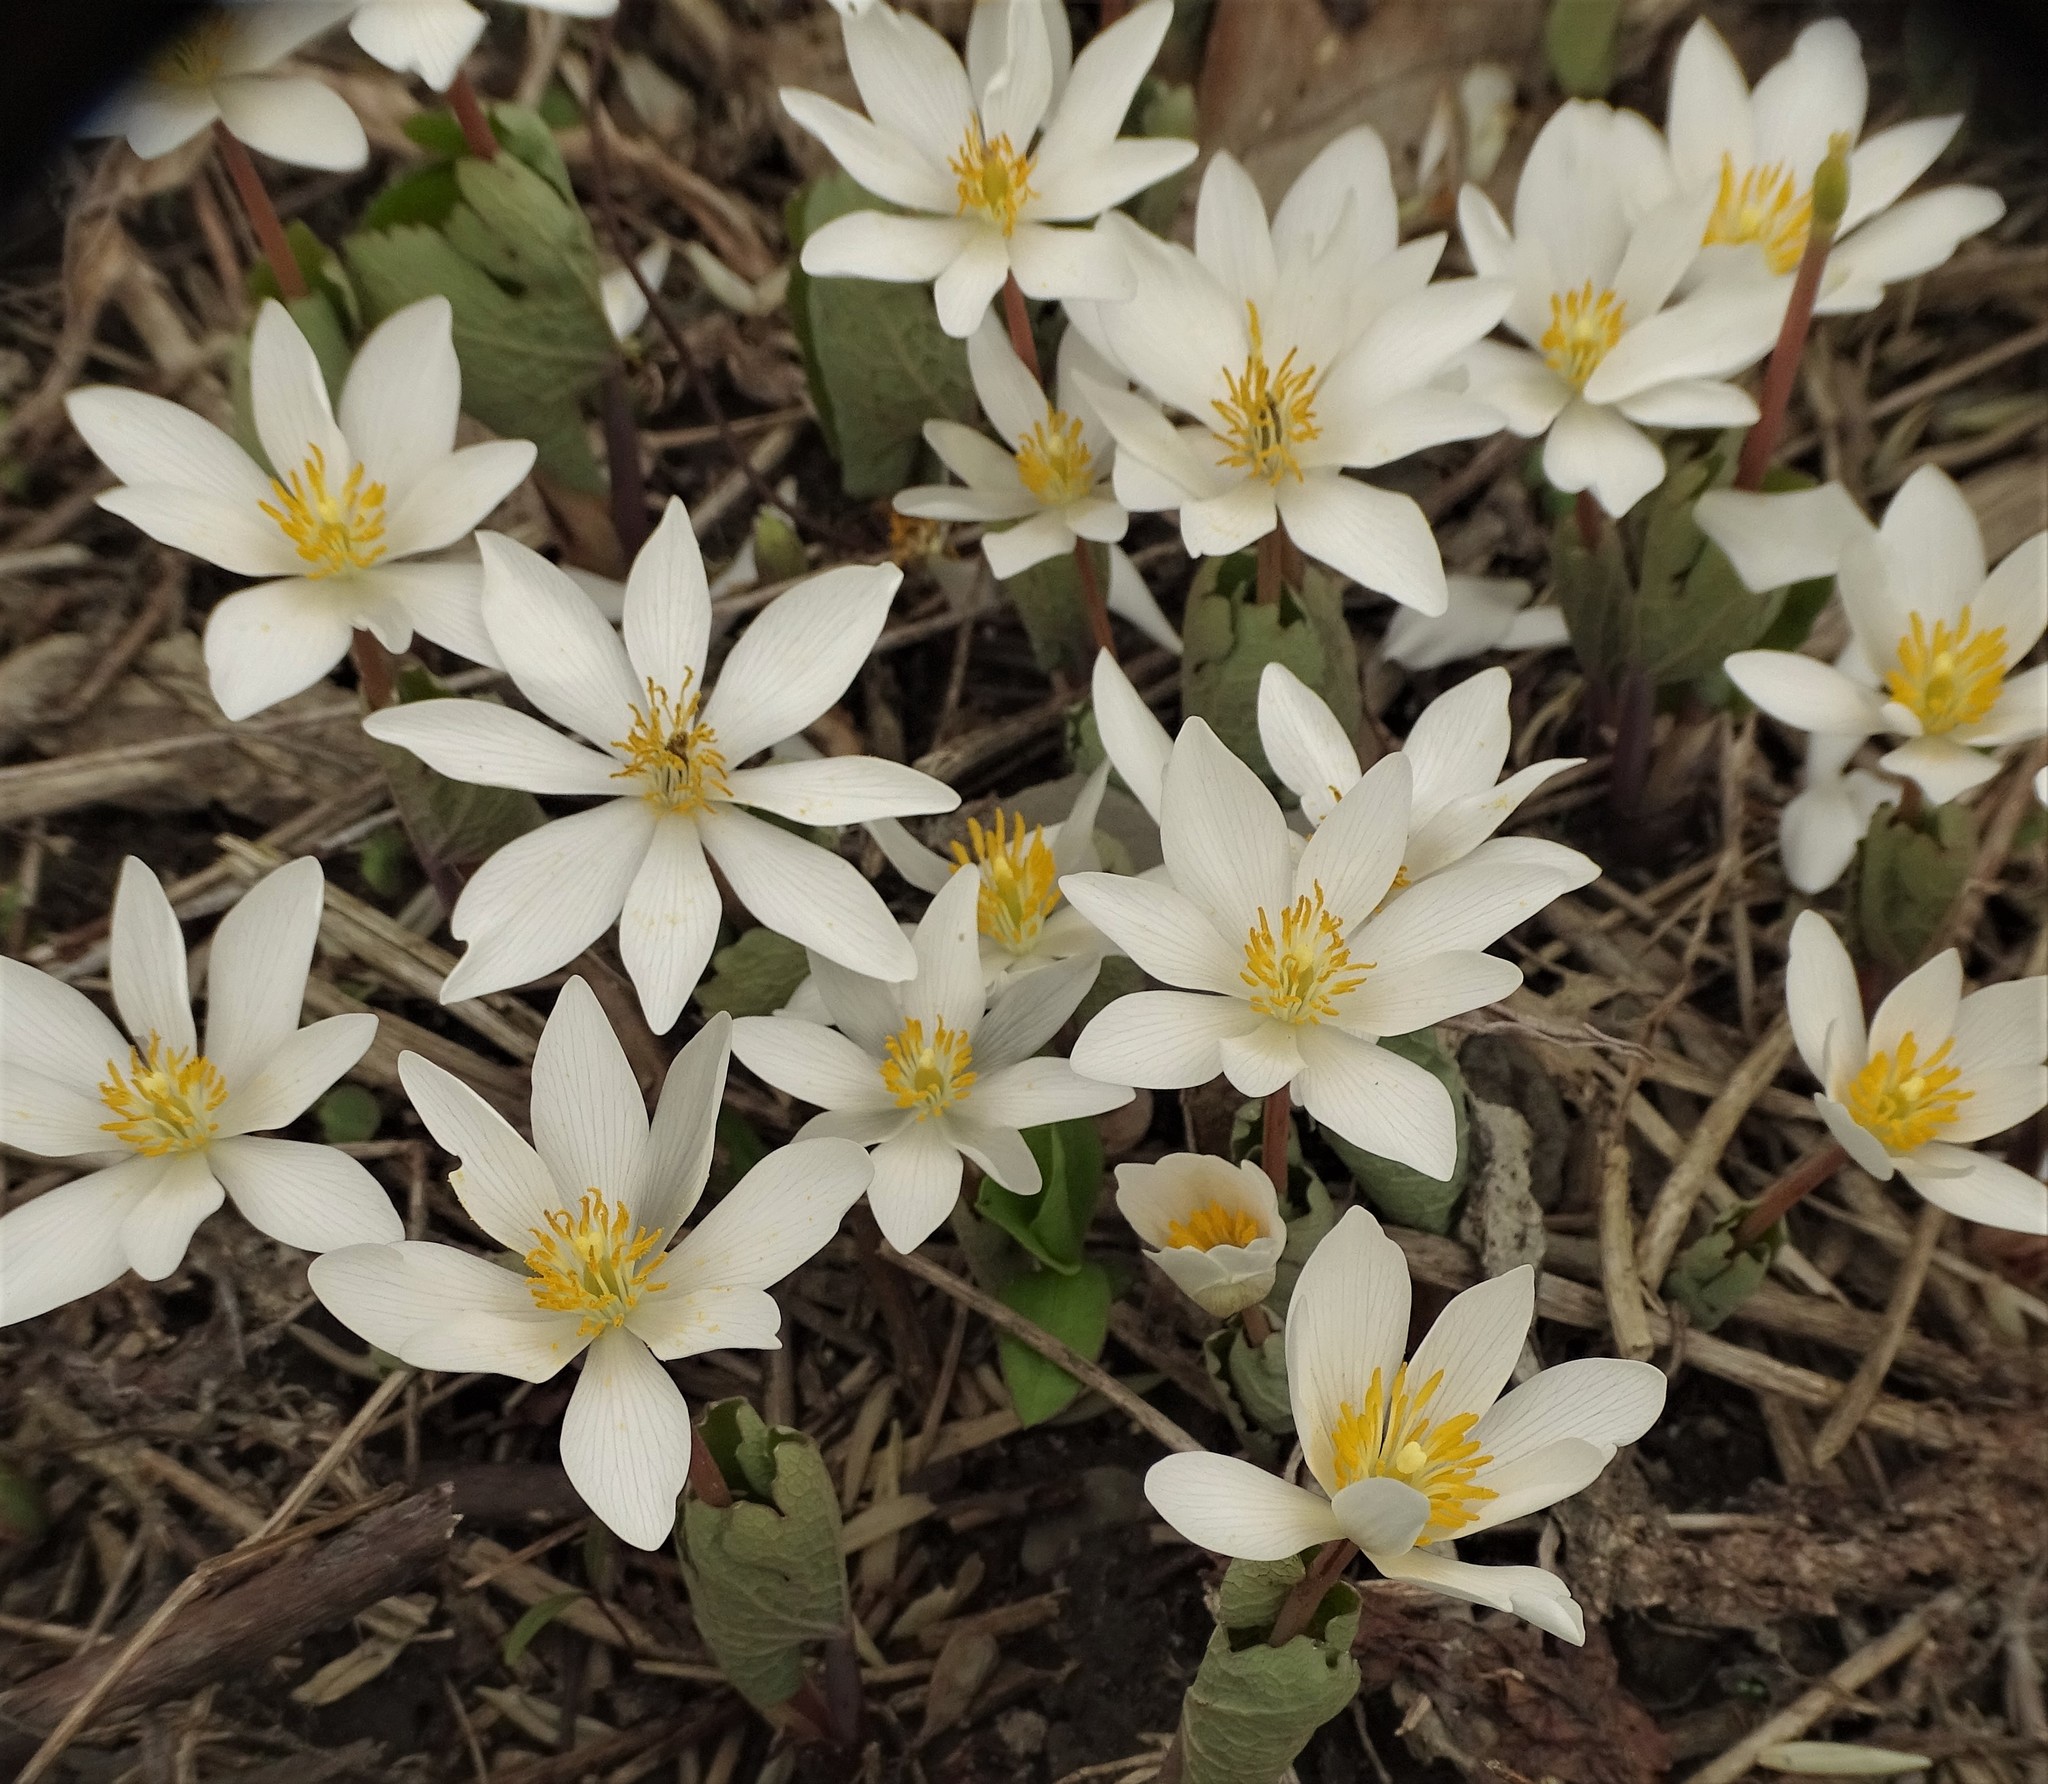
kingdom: Plantae
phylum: Tracheophyta
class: Magnoliopsida
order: Ranunculales
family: Papaveraceae
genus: Sanguinaria
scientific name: Sanguinaria canadensis
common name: Bloodroot
